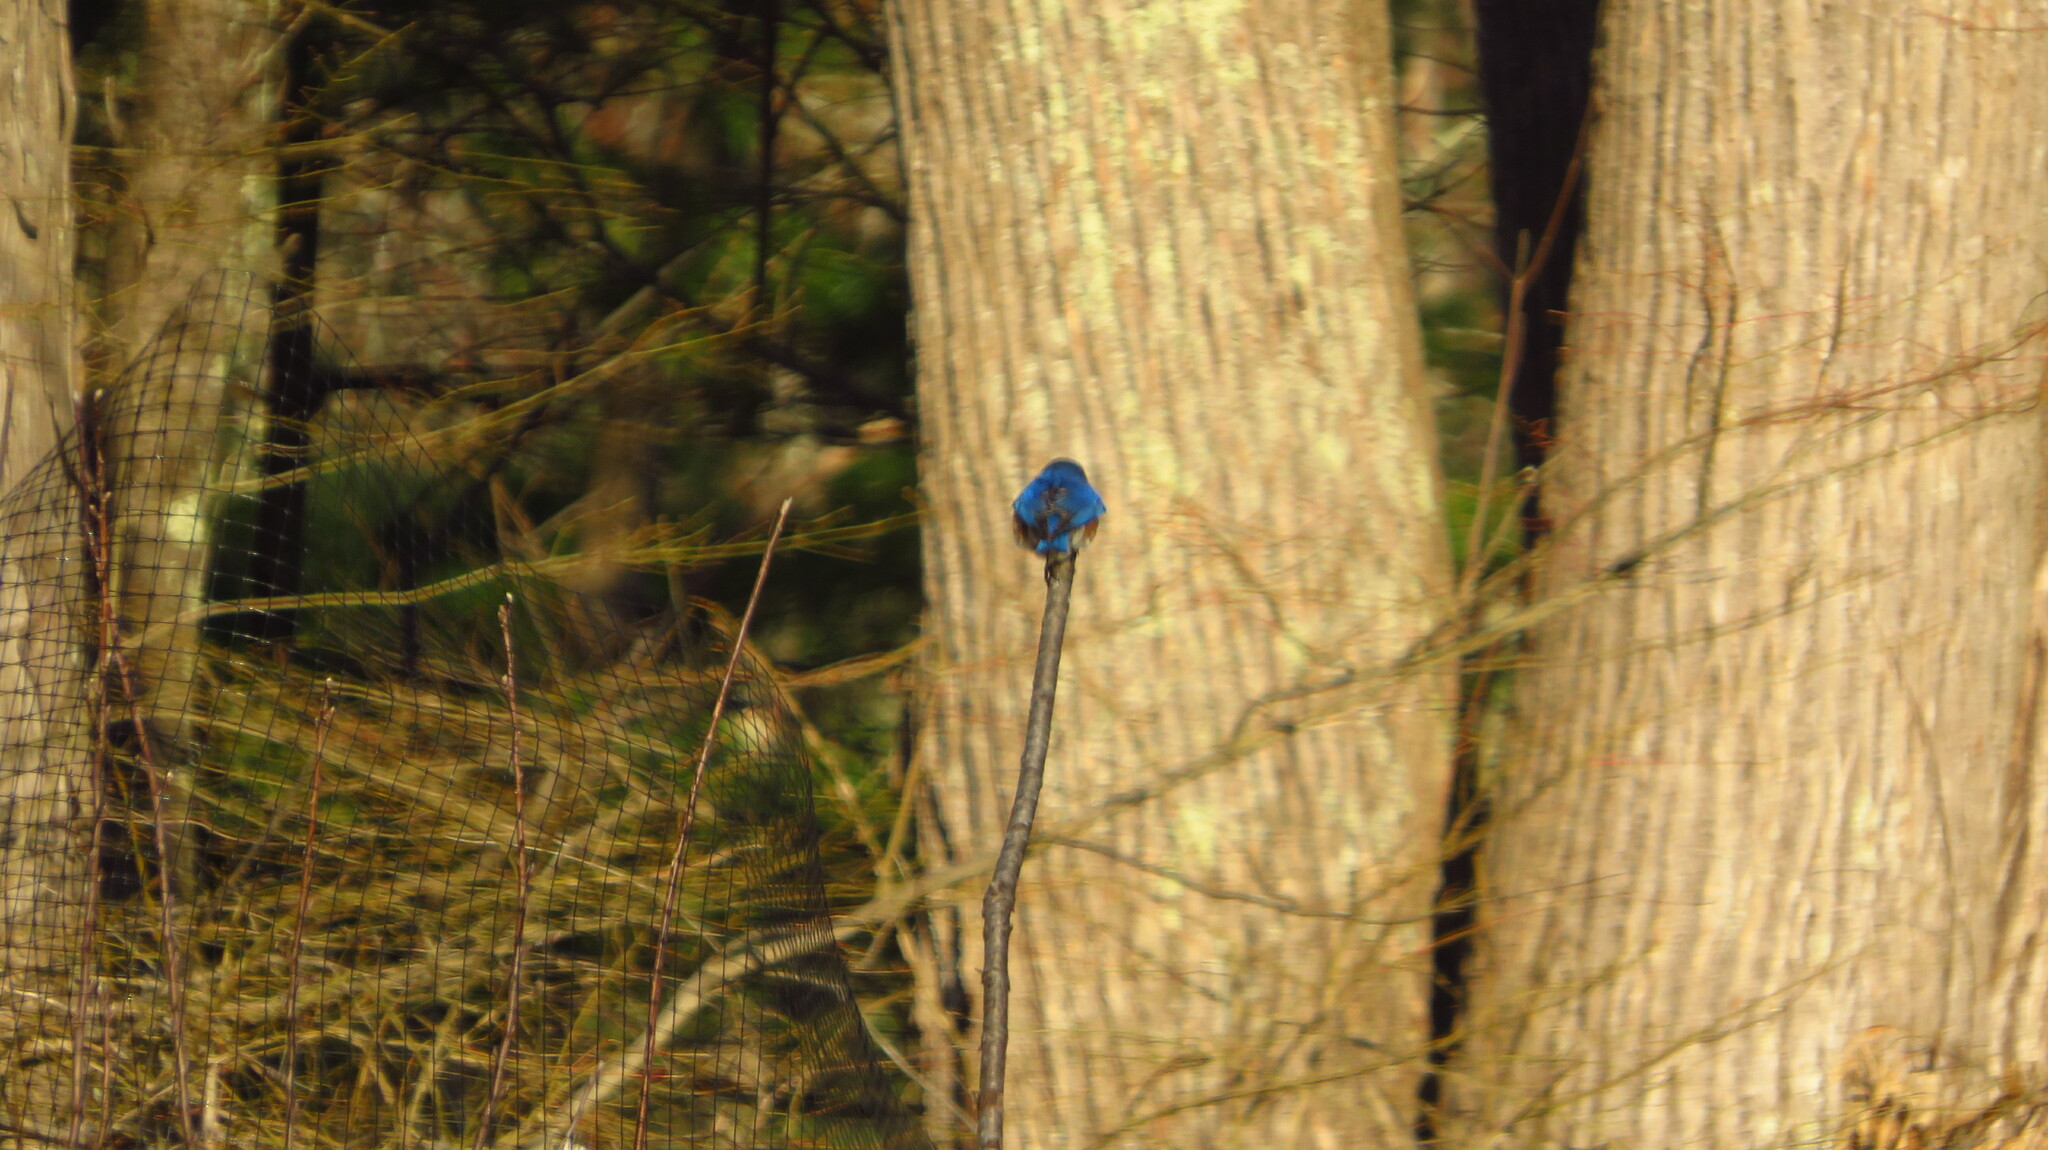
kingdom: Animalia
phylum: Chordata
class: Aves
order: Passeriformes
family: Turdidae
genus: Sialia
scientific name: Sialia sialis
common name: Eastern bluebird
